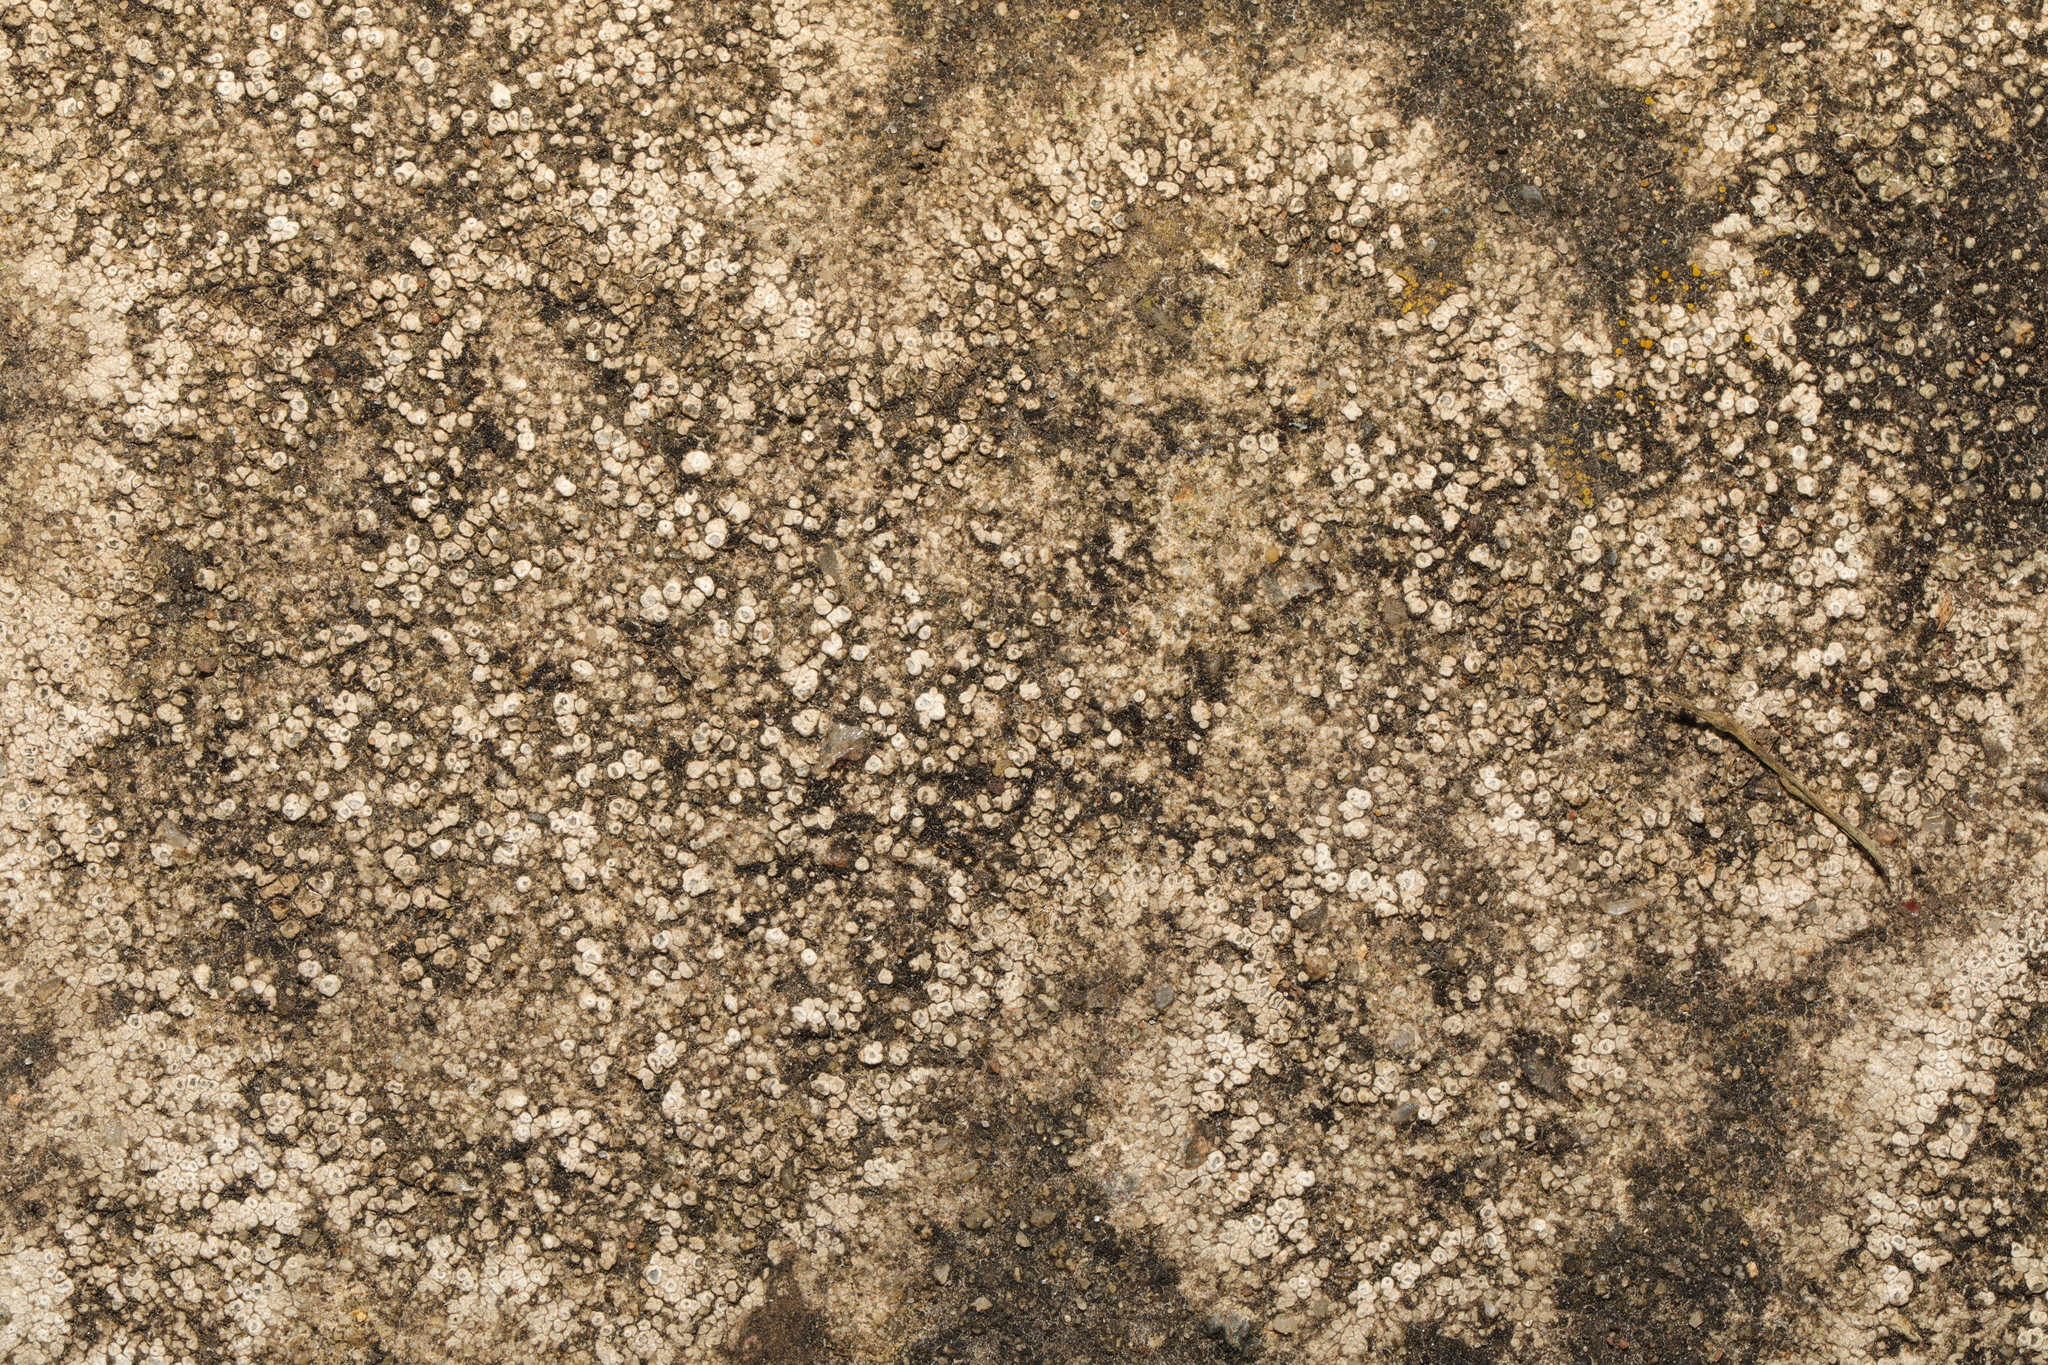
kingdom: Fungi
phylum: Ascomycota
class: Lecanoromycetes
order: Pertusariales
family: Megasporaceae
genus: Circinaria
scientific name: Circinaria contorta
